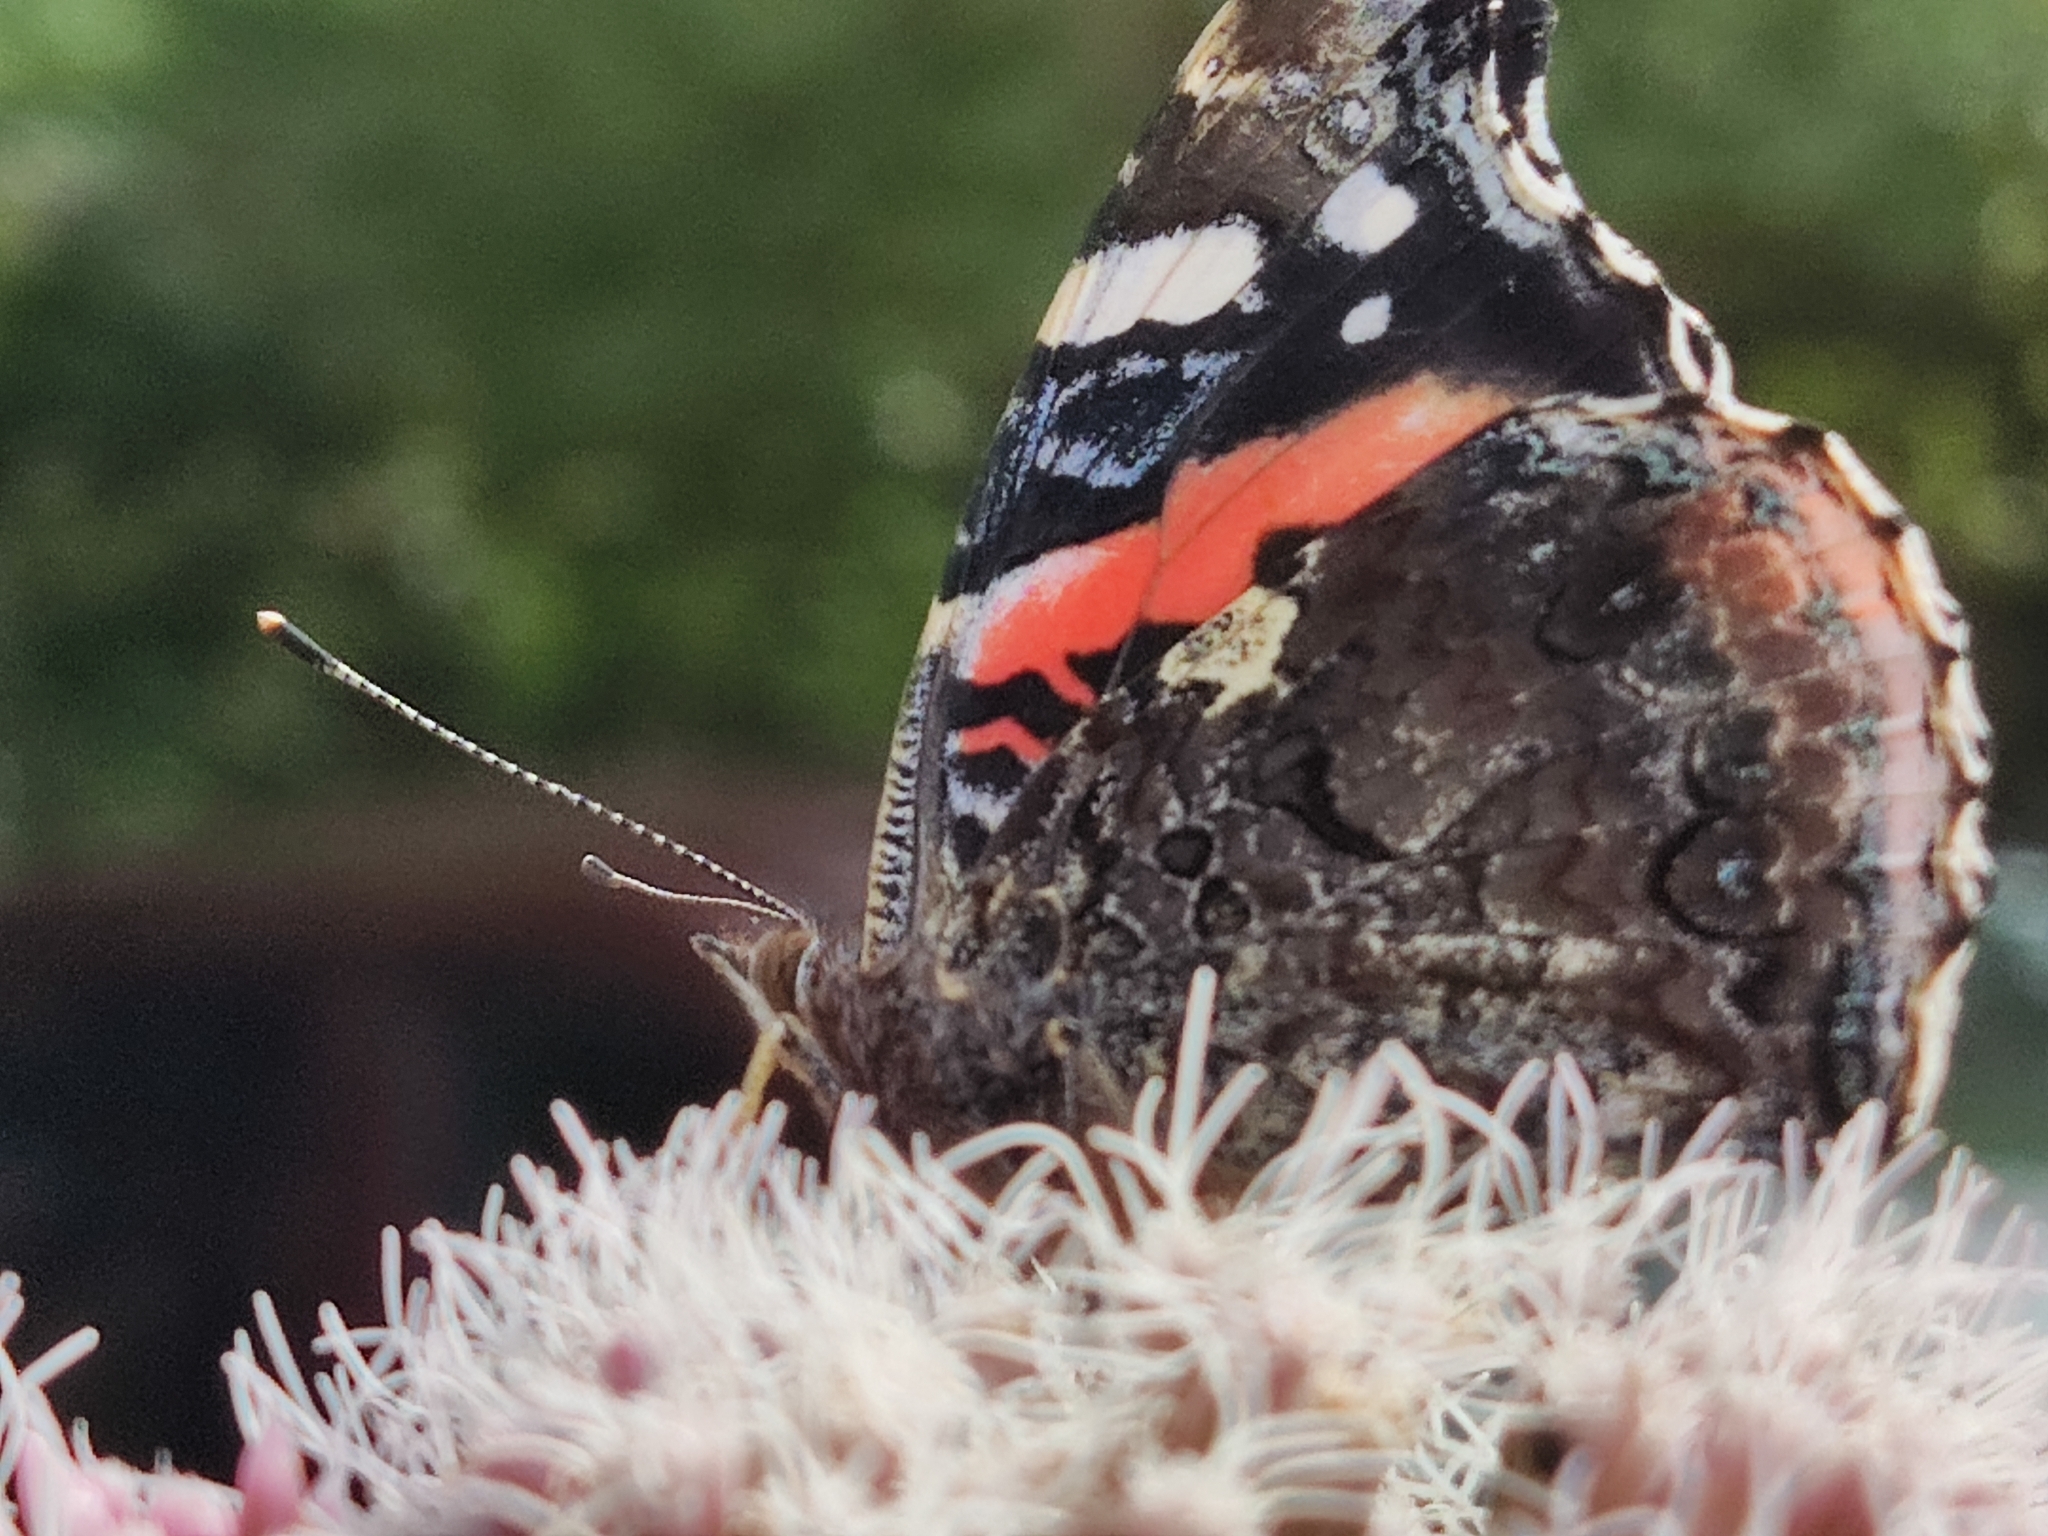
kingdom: Animalia
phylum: Arthropoda
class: Insecta
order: Lepidoptera
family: Nymphalidae
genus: Vanessa
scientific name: Vanessa atalanta
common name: Red admiral
